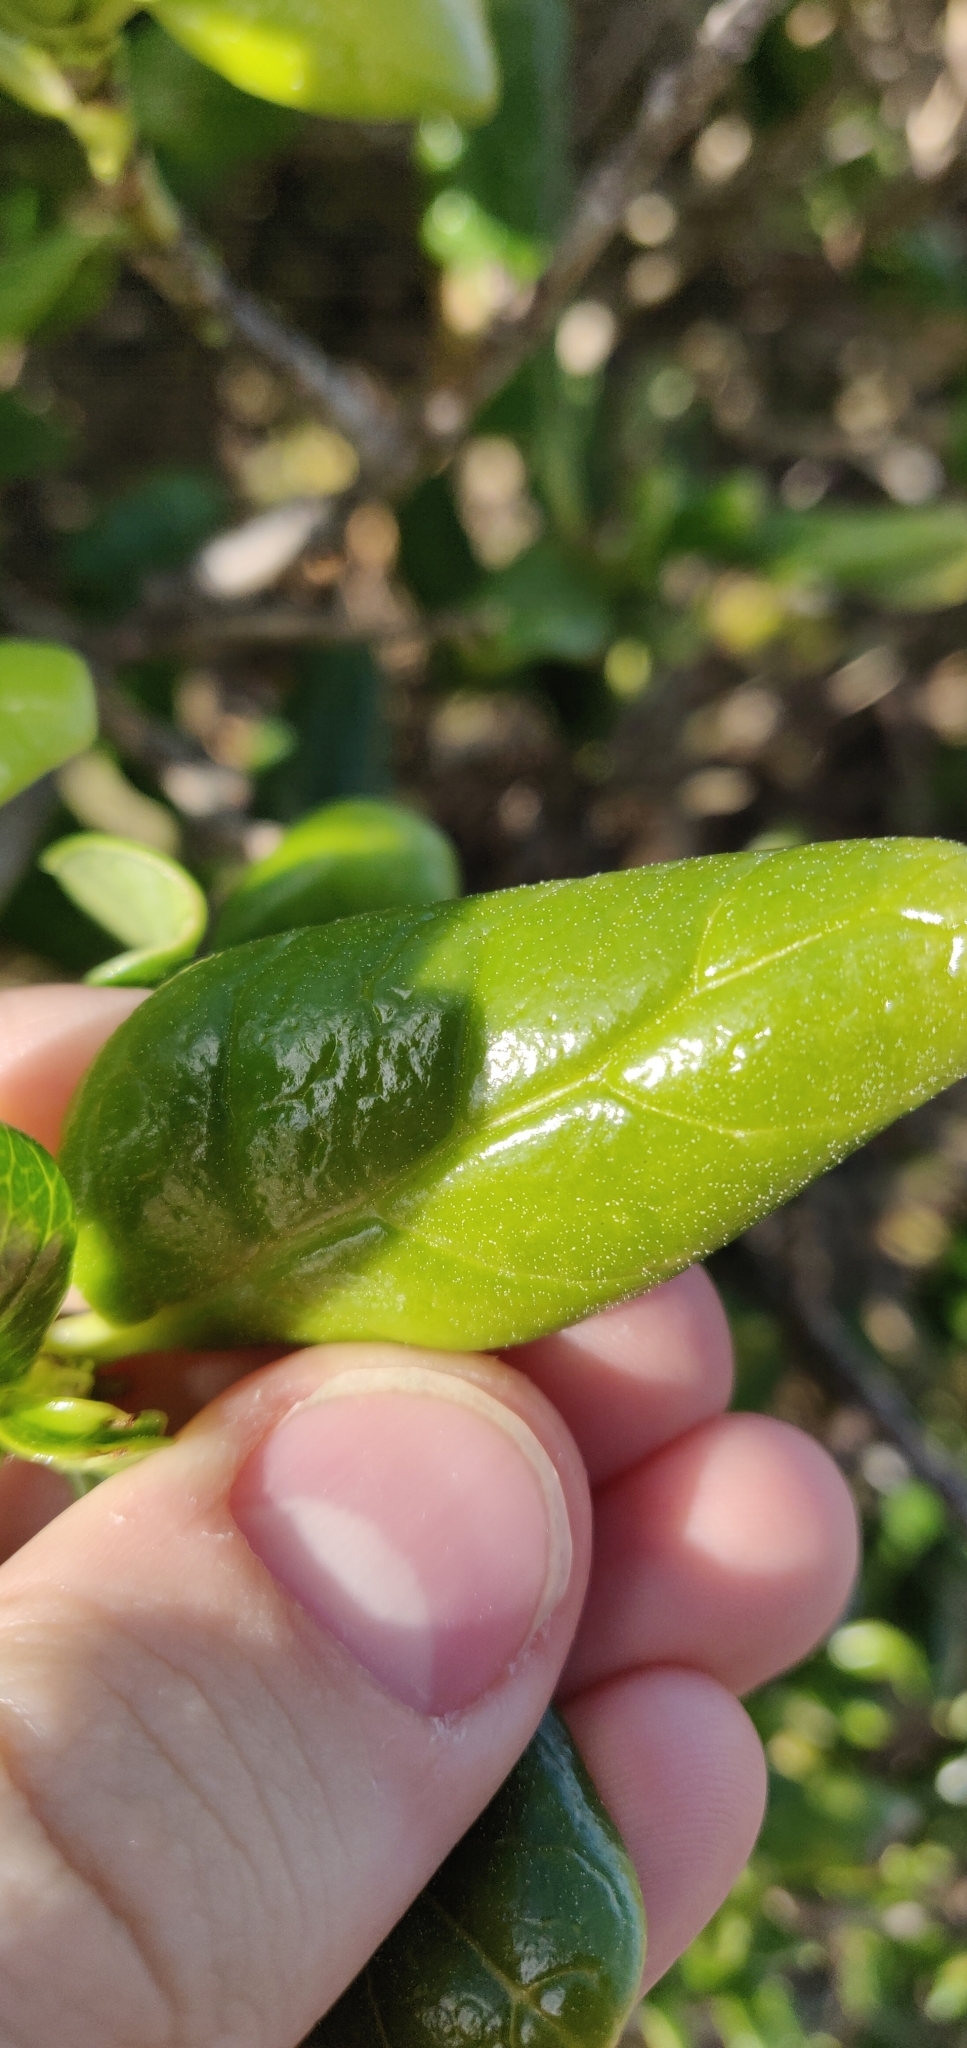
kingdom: Plantae
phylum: Tracheophyta
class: Magnoliopsida
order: Gentianales
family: Rubiaceae
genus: Coprosma
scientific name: Coprosma repens
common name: Tree bedstraw
